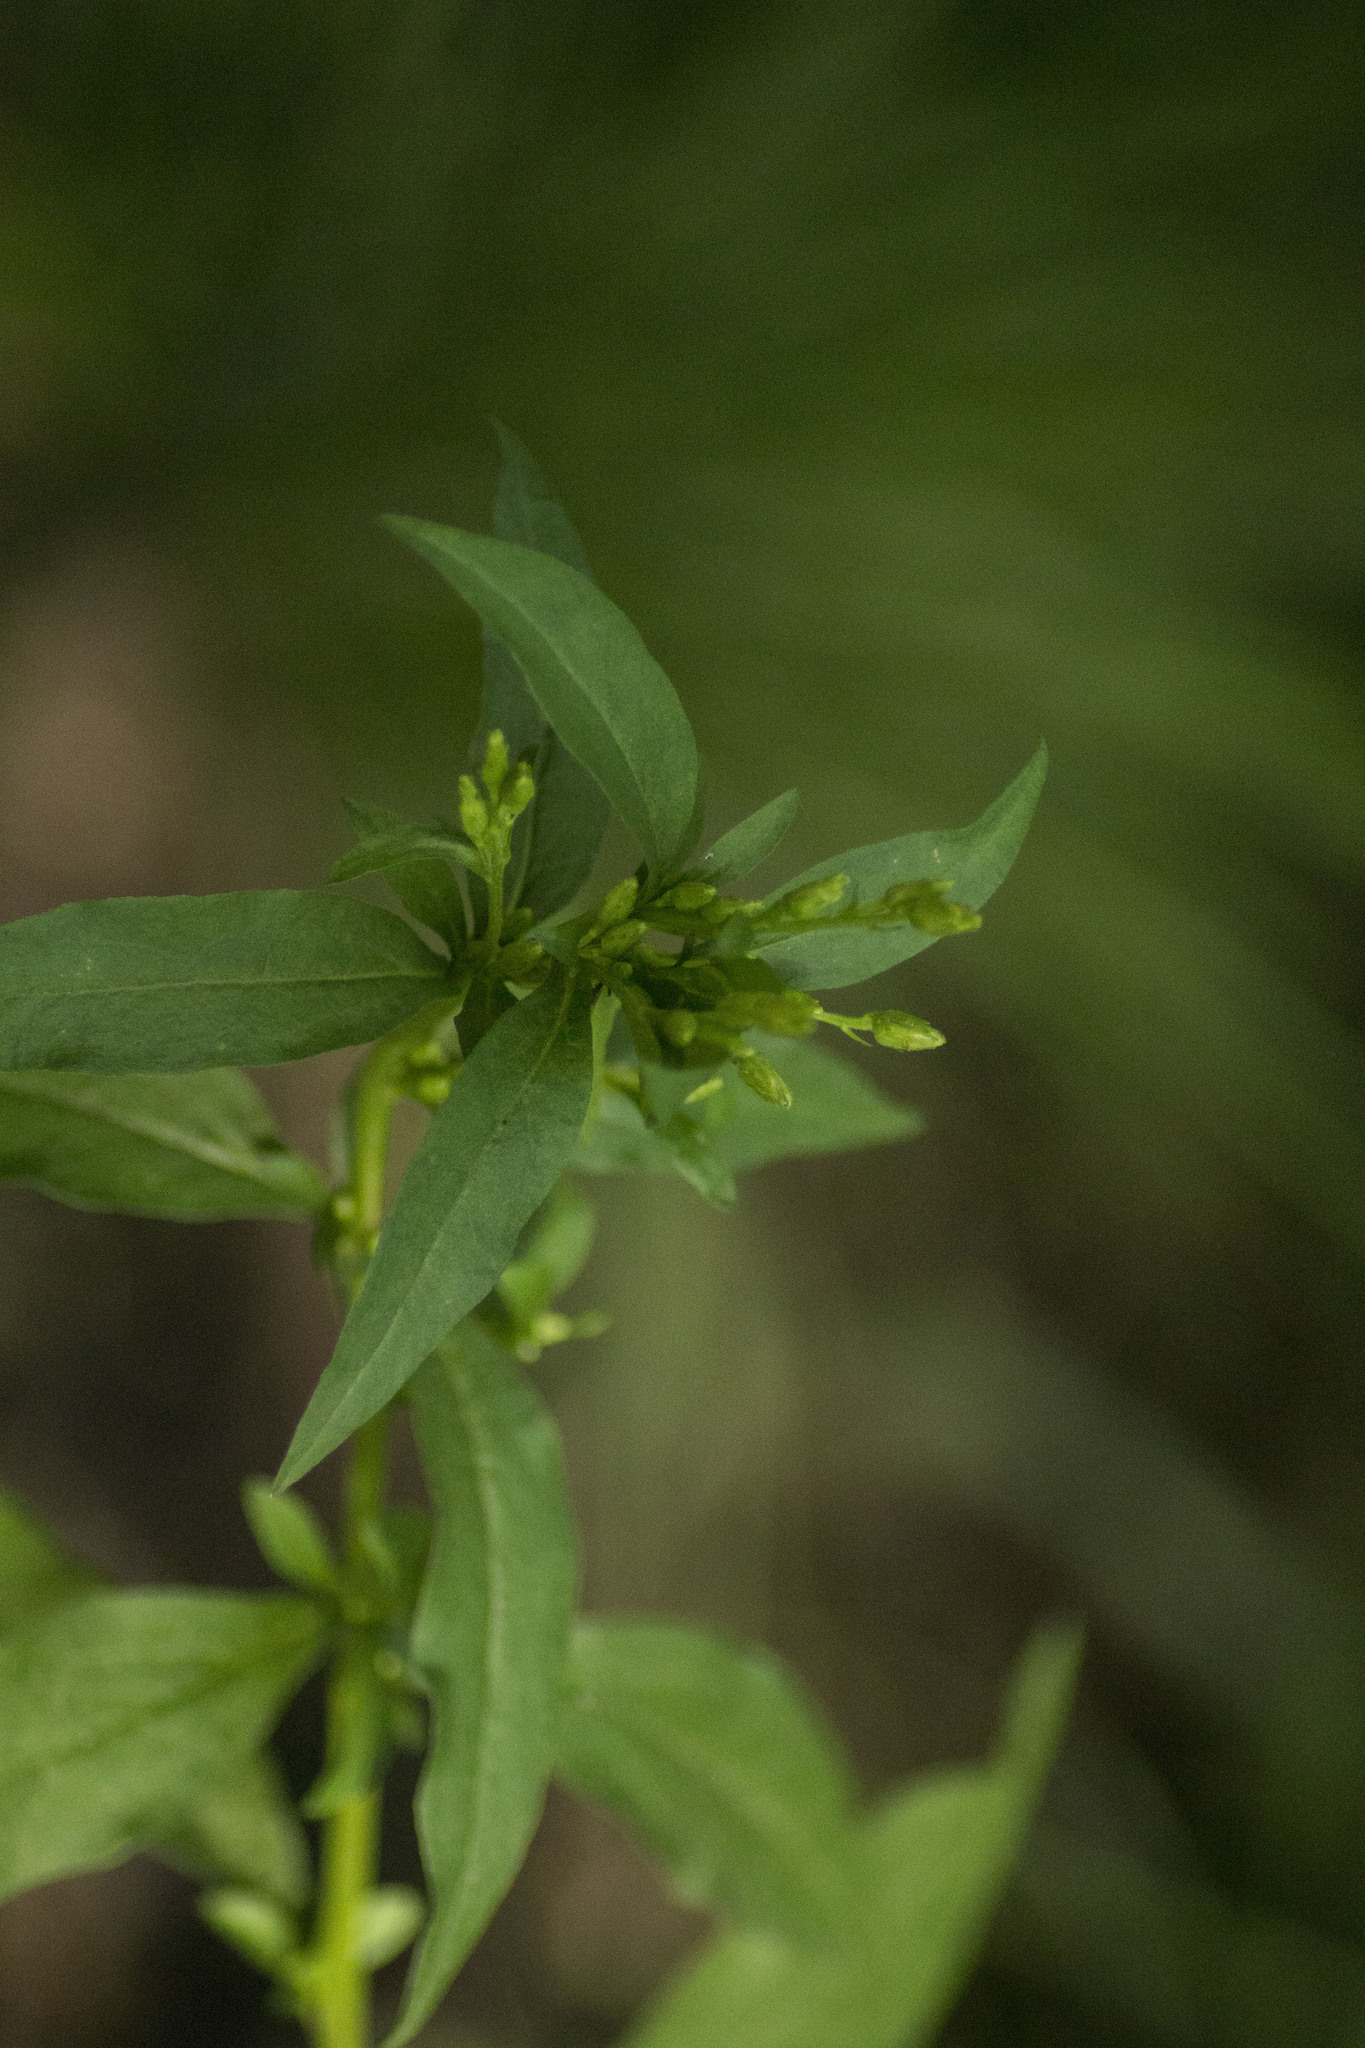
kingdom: Plantae
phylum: Tracheophyta
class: Magnoliopsida
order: Asterales
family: Asteraceae
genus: Solidago
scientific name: Solidago virgaurea
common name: Goldenrod
